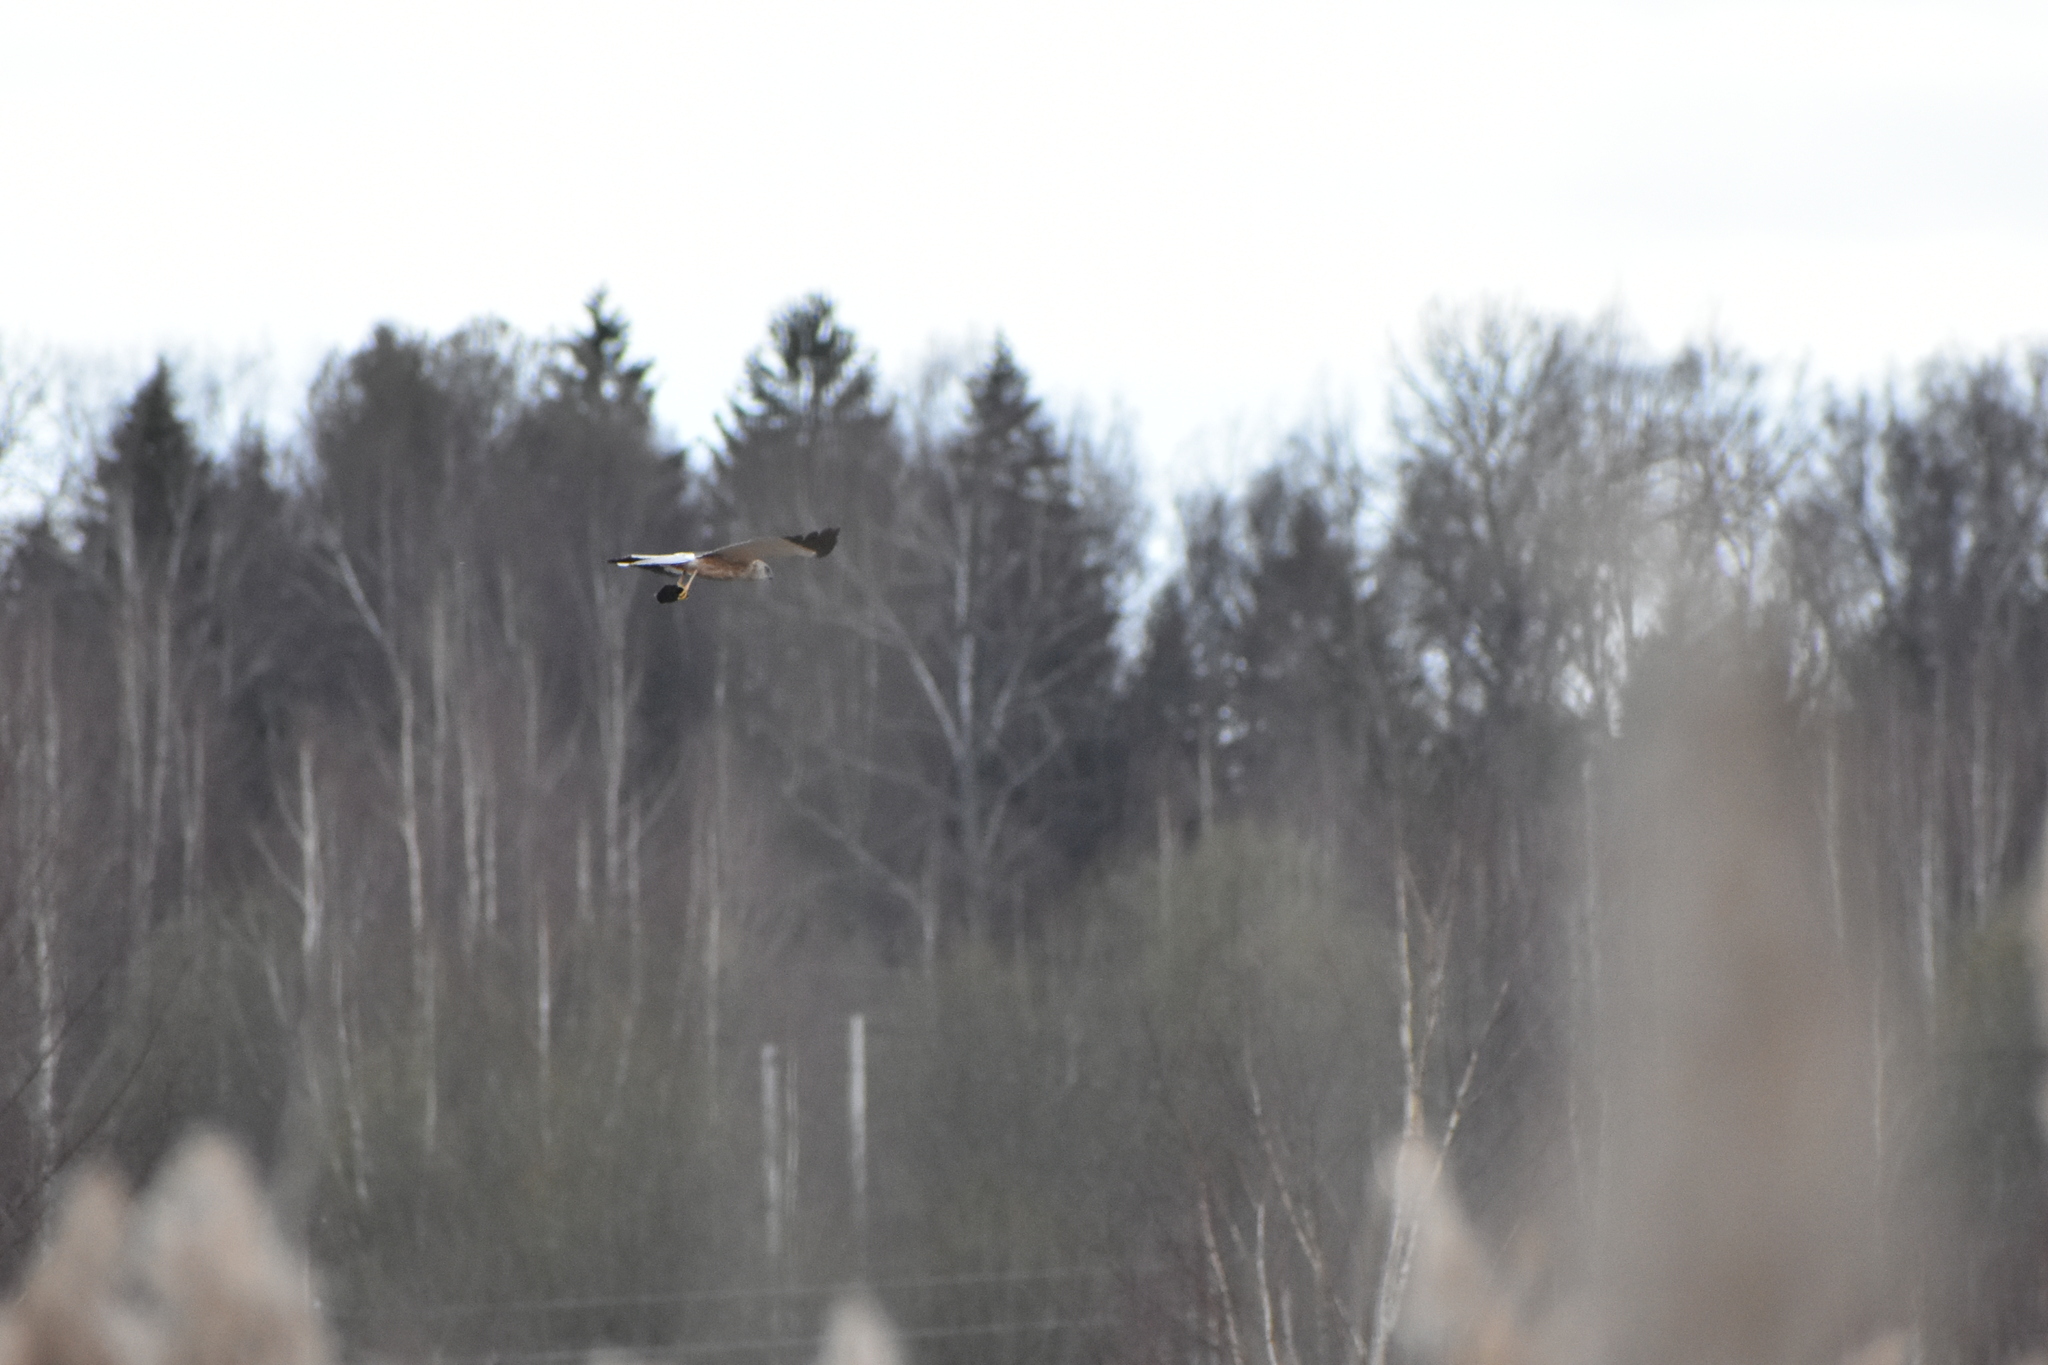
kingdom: Animalia
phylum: Chordata
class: Aves
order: Accipitriformes
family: Accipitridae
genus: Circus
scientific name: Circus aeruginosus
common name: Western marsh harrier
